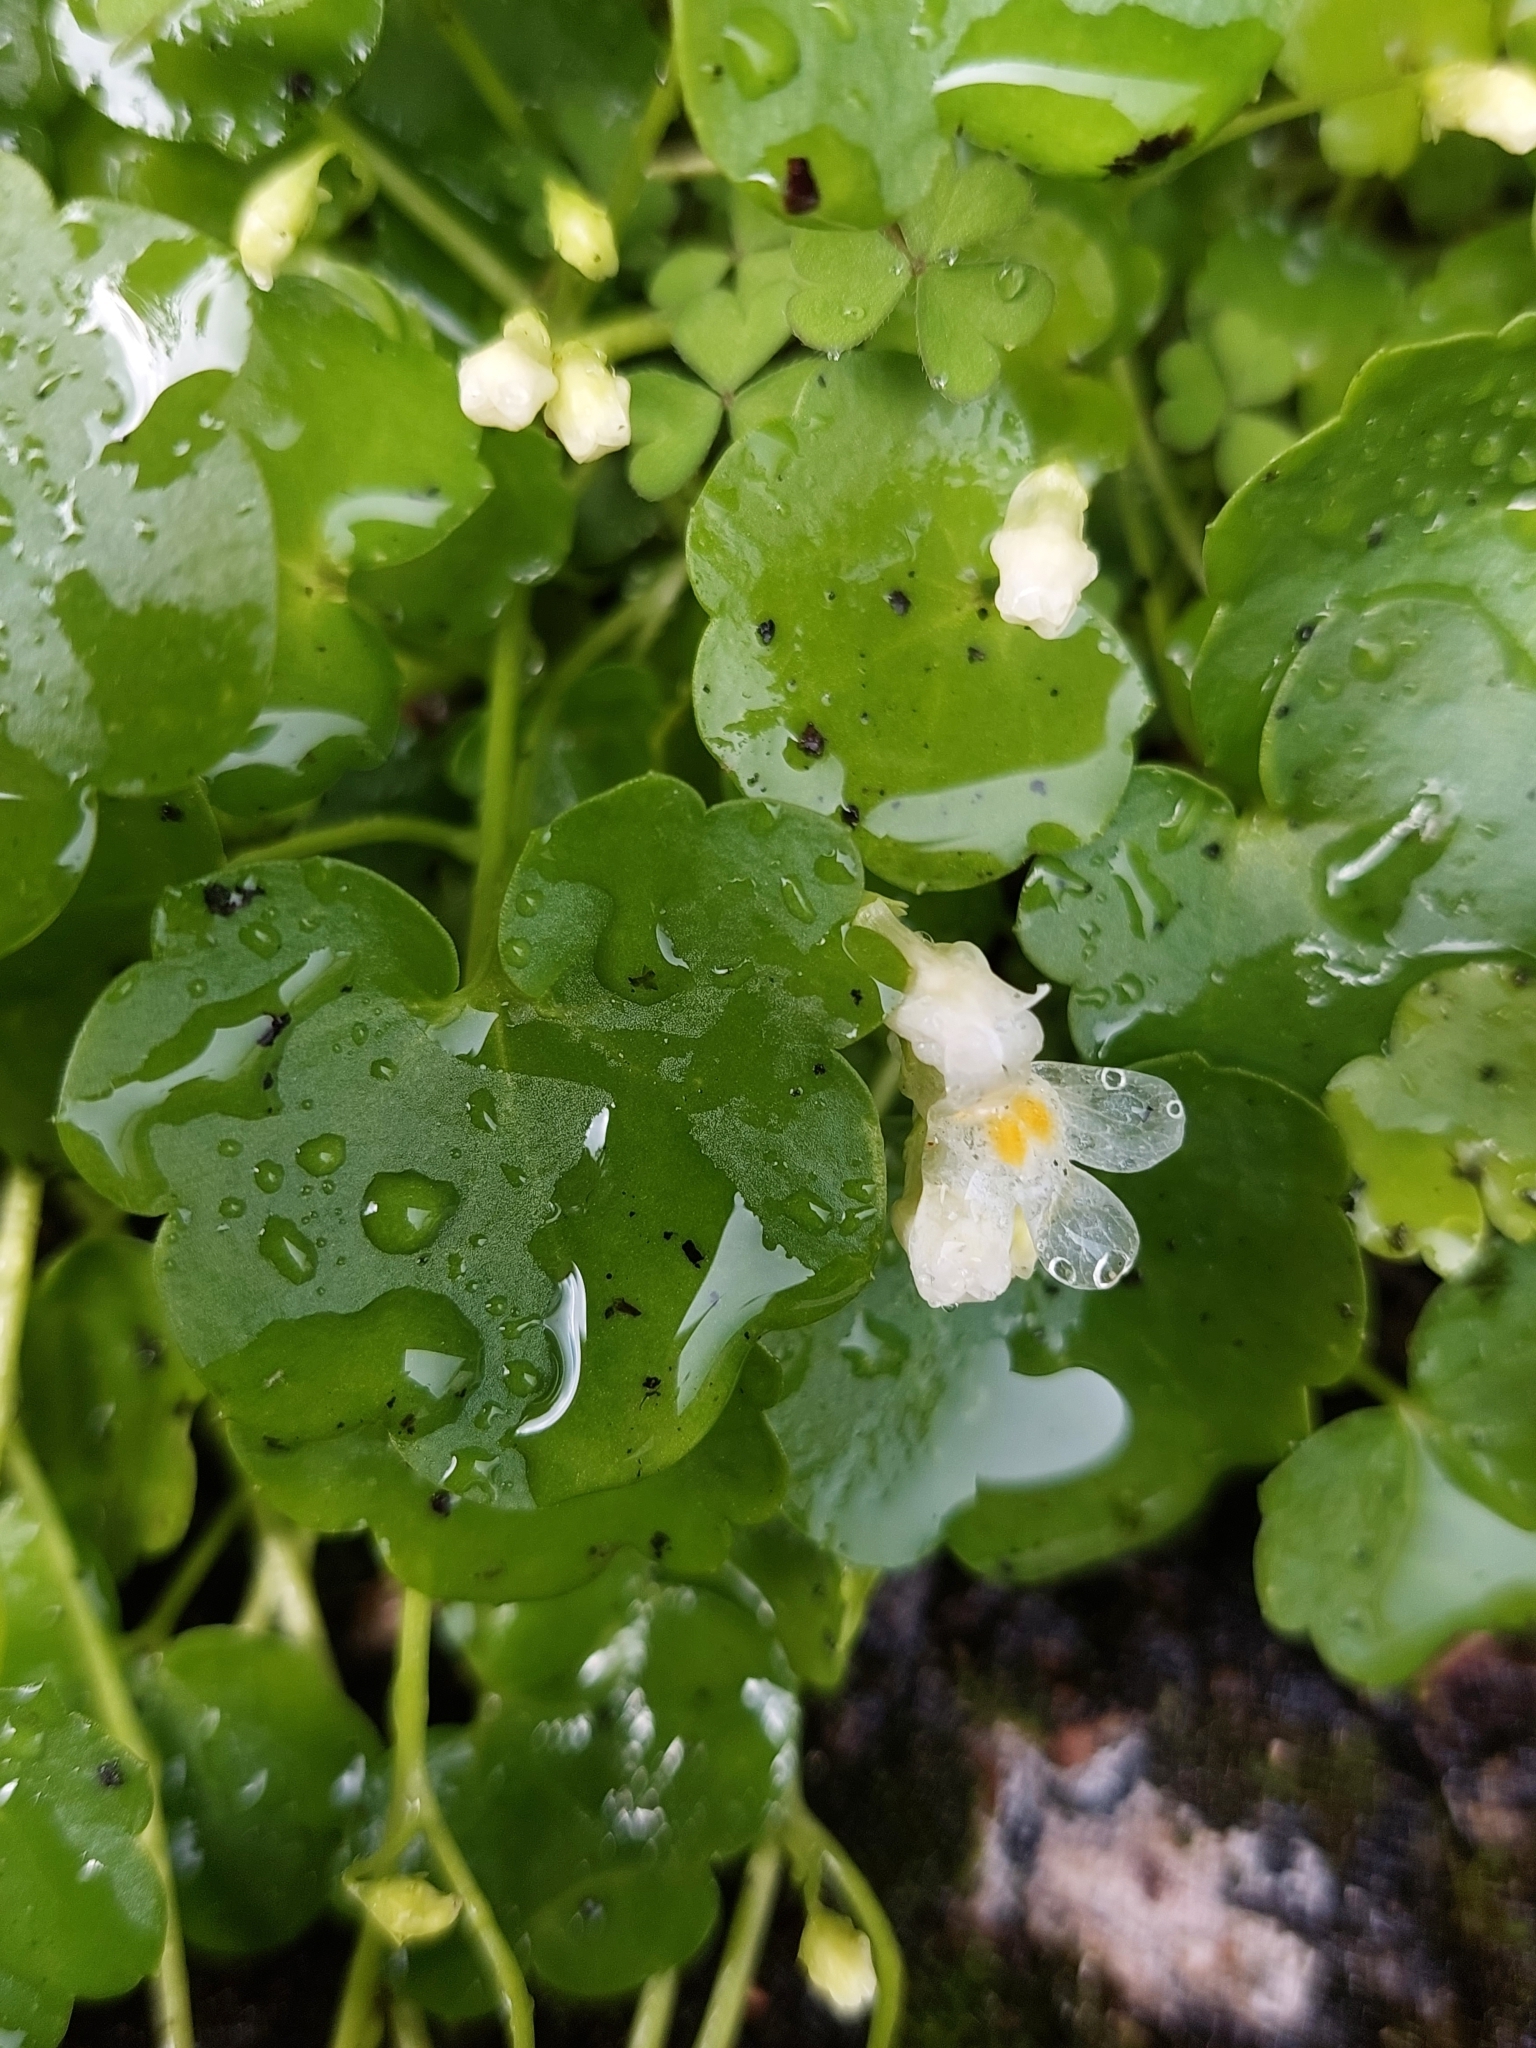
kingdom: Plantae
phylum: Tracheophyta
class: Magnoliopsida
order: Lamiales
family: Plantaginaceae
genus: Cymbalaria
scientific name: Cymbalaria muralis
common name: Ivy-leaved toadflax
